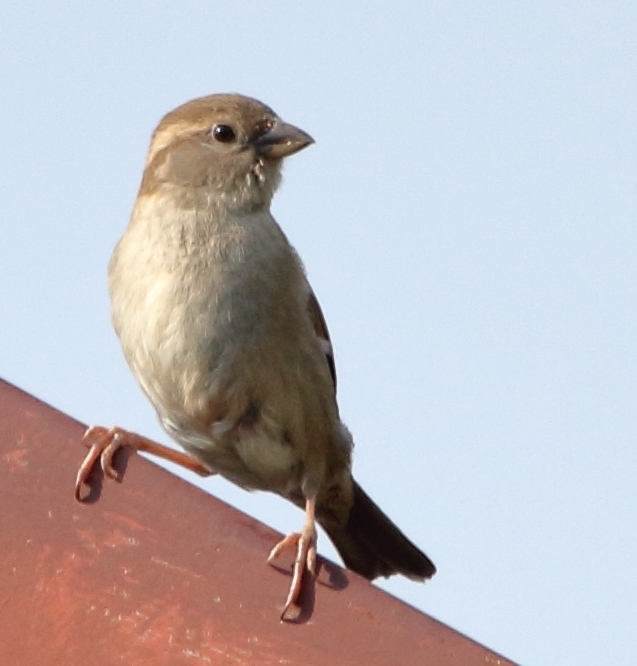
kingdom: Animalia
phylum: Chordata
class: Aves
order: Passeriformes
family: Passeridae
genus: Passer
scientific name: Passer domesticus
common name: House sparrow
